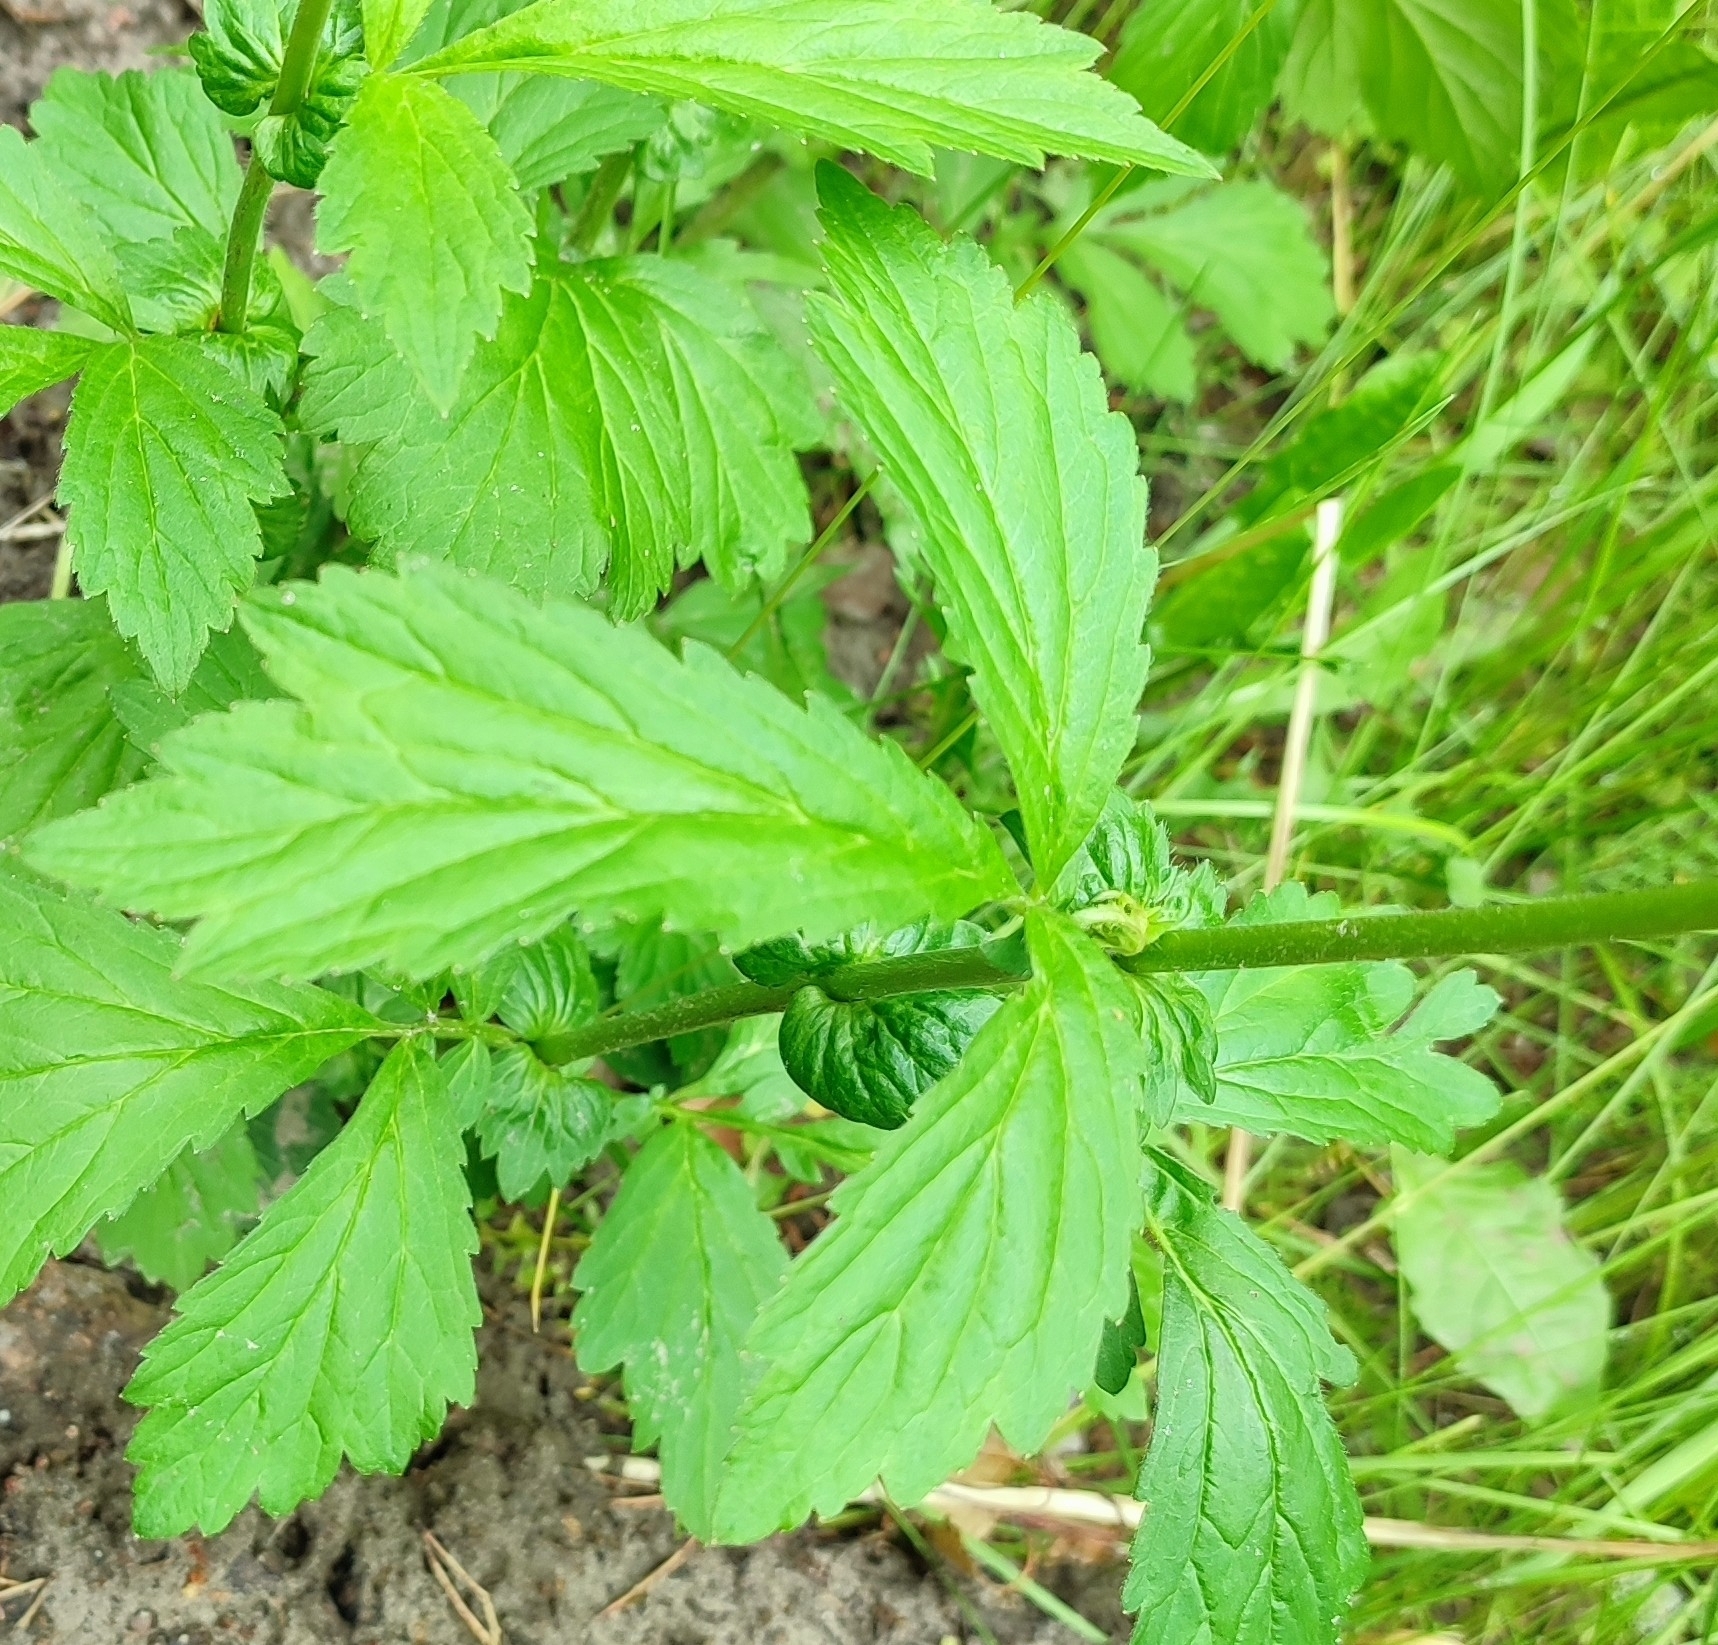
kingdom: Plantae
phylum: Tracheophyta
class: Magnoliopsida
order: Rosales
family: Rosaceae
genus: Geum
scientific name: Geum aleppicum
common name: Yellow avens
